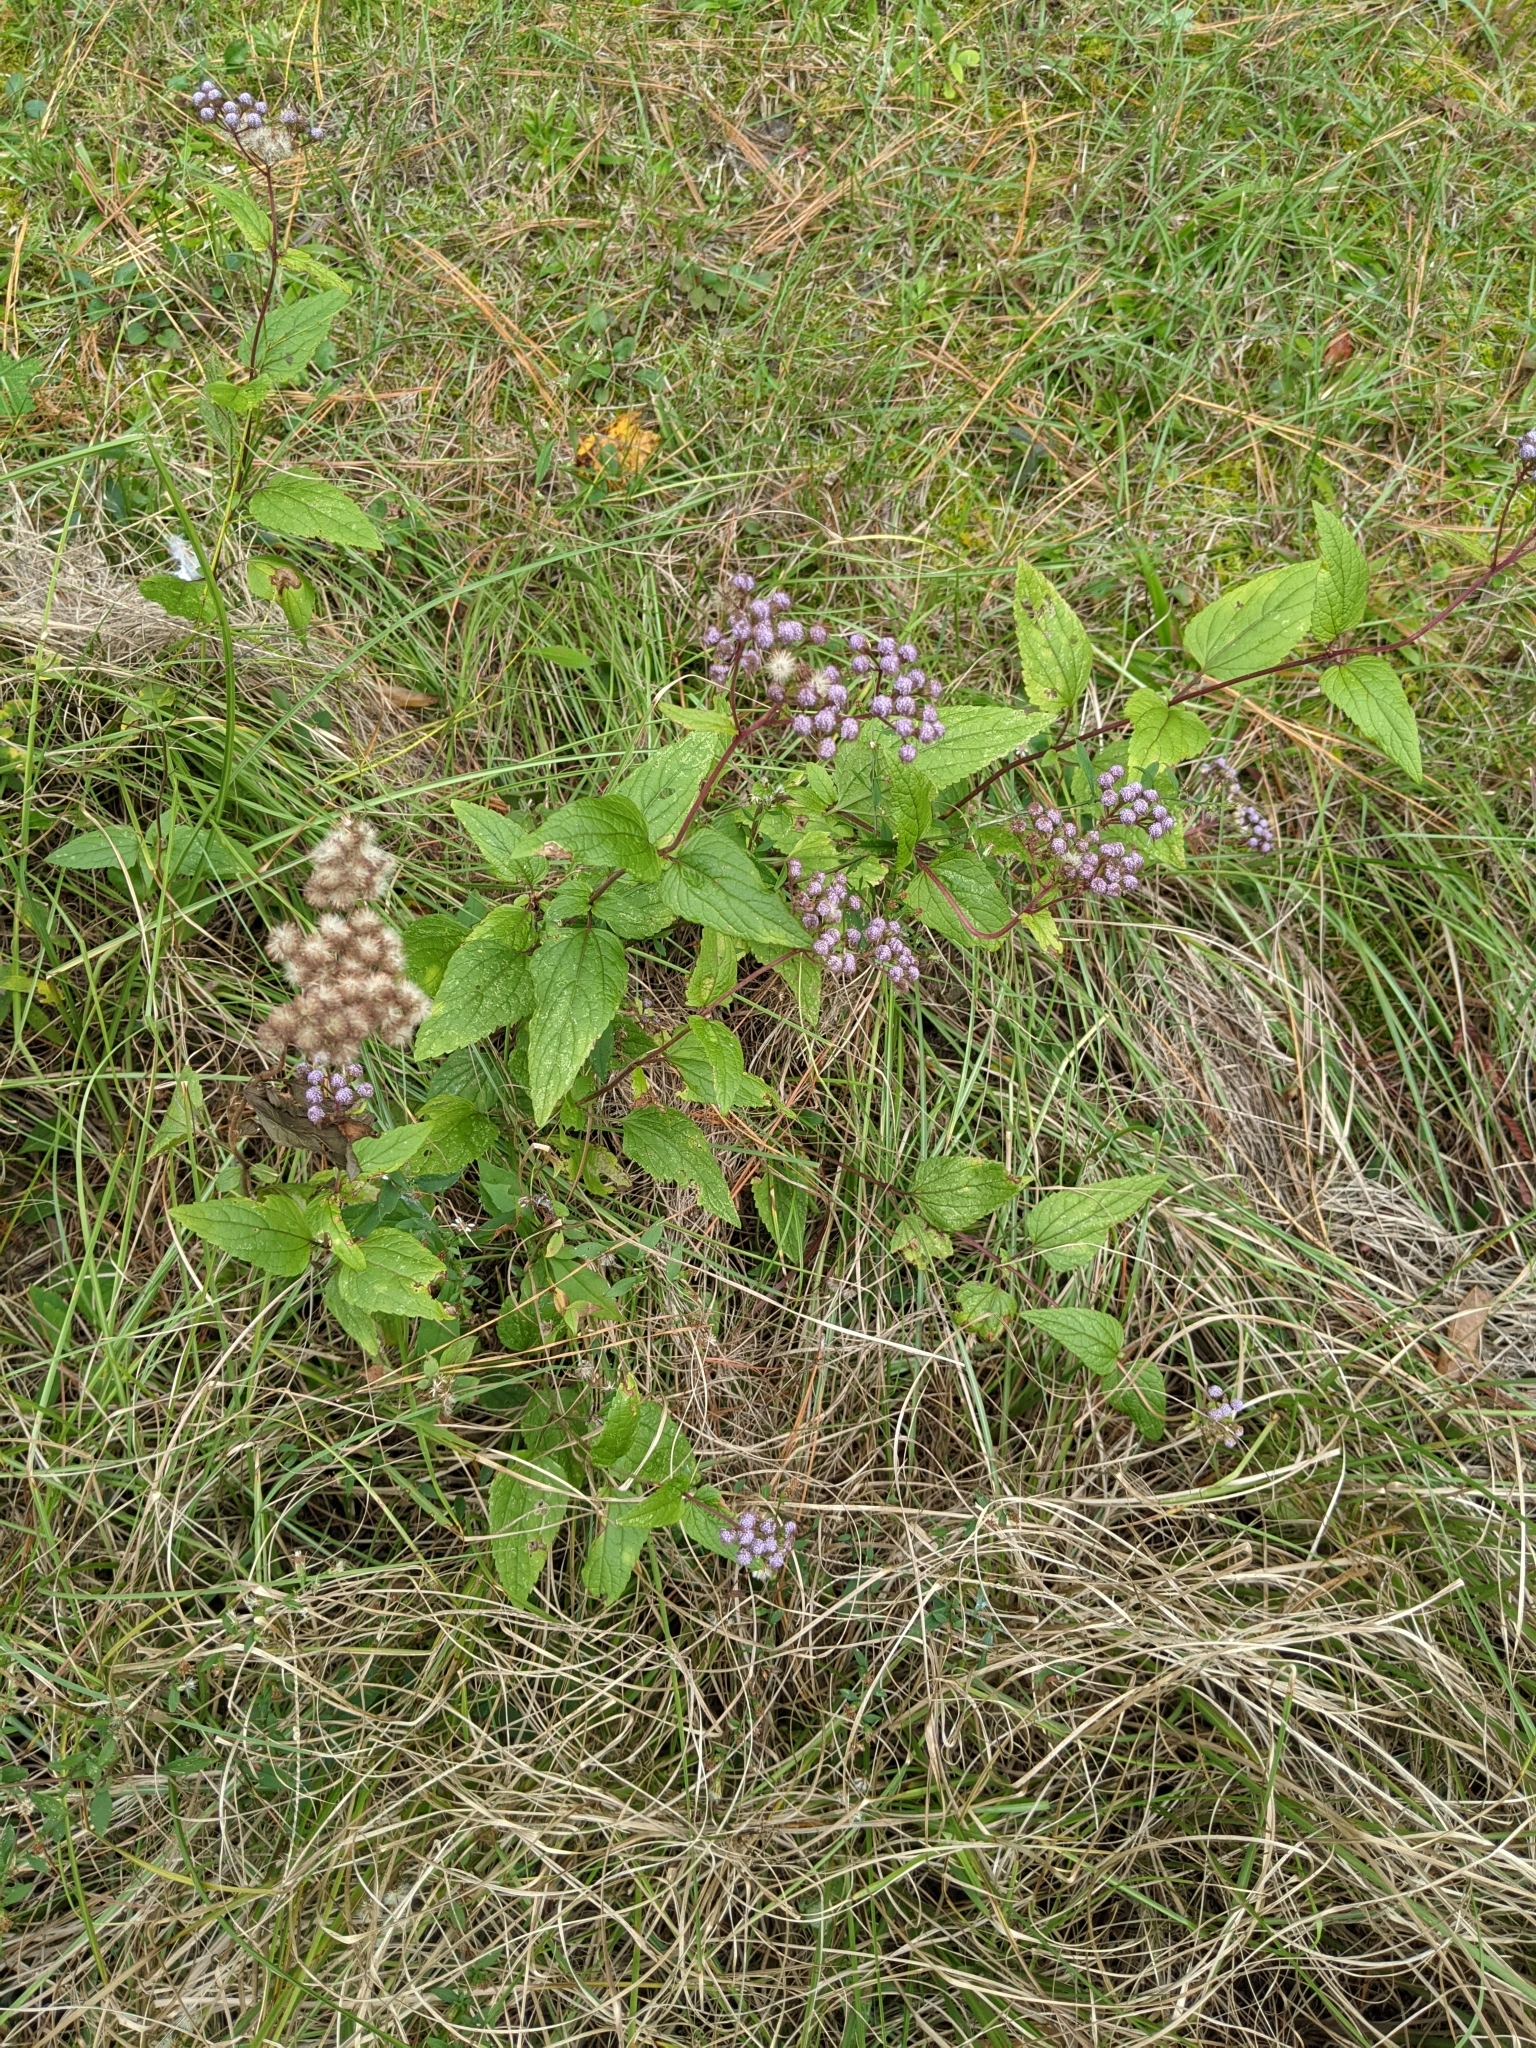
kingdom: Plantae
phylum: Tracheophyta
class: Magnoliopsida
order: Asterales
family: Asteraceae
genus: Conoclinium
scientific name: Conoclinium coelestinum
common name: Blue mistflower
